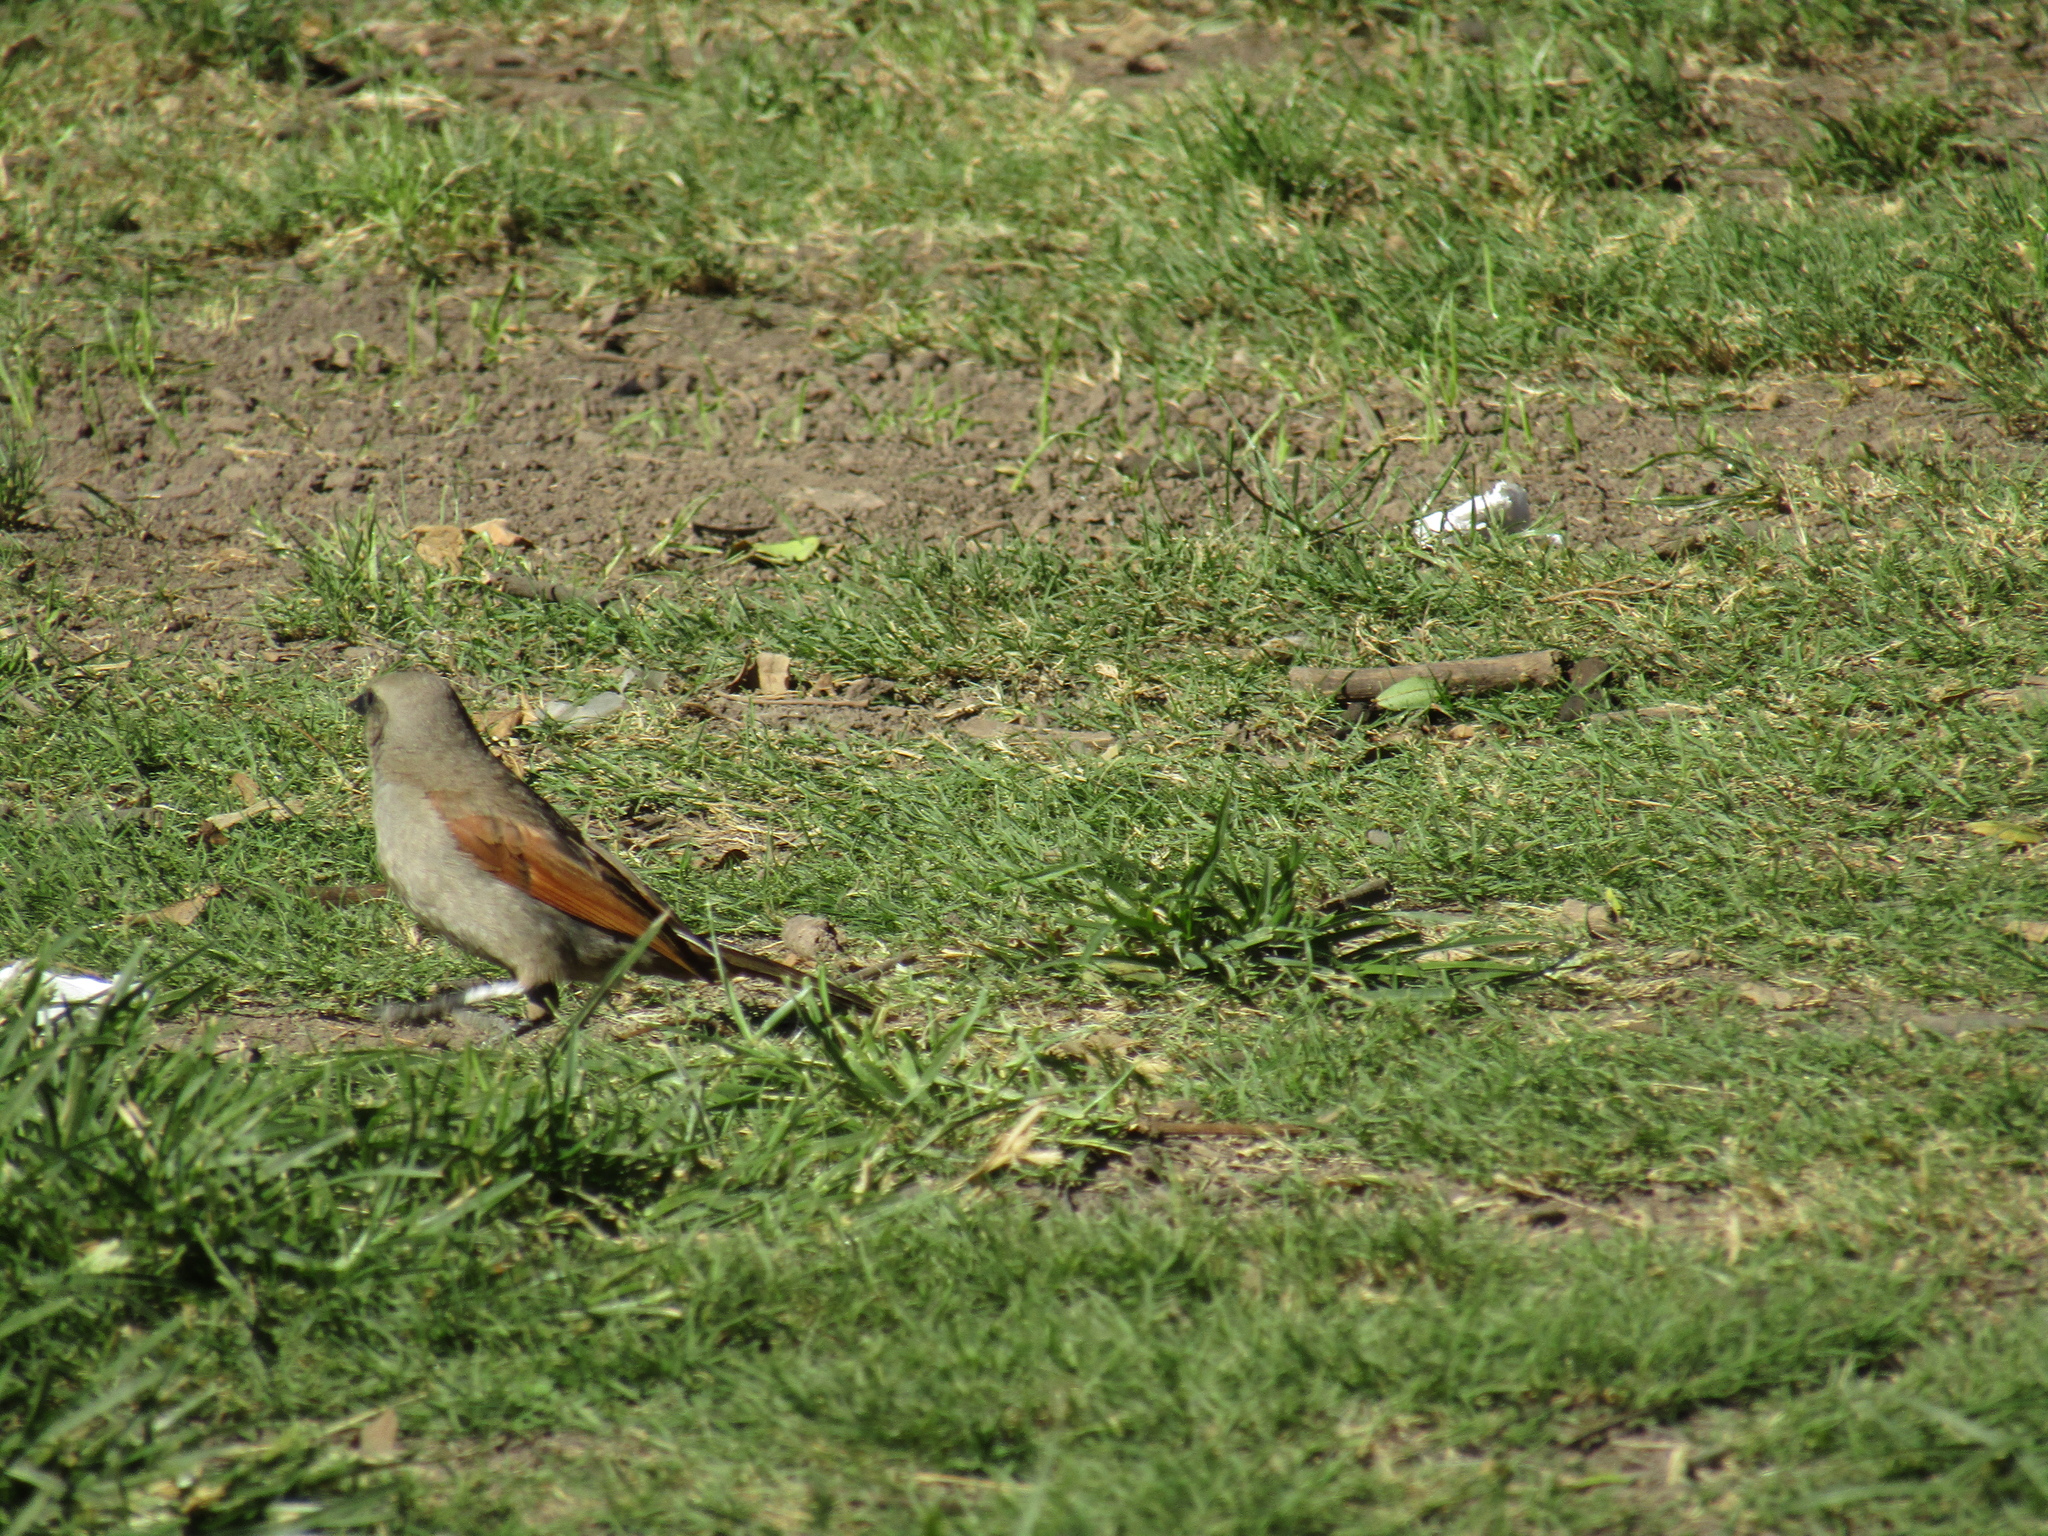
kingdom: Animalia
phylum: Chordata
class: Aves
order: Passeriformes
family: Icteridae
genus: Agelaioides
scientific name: Agelaioides badius
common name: Baywing
